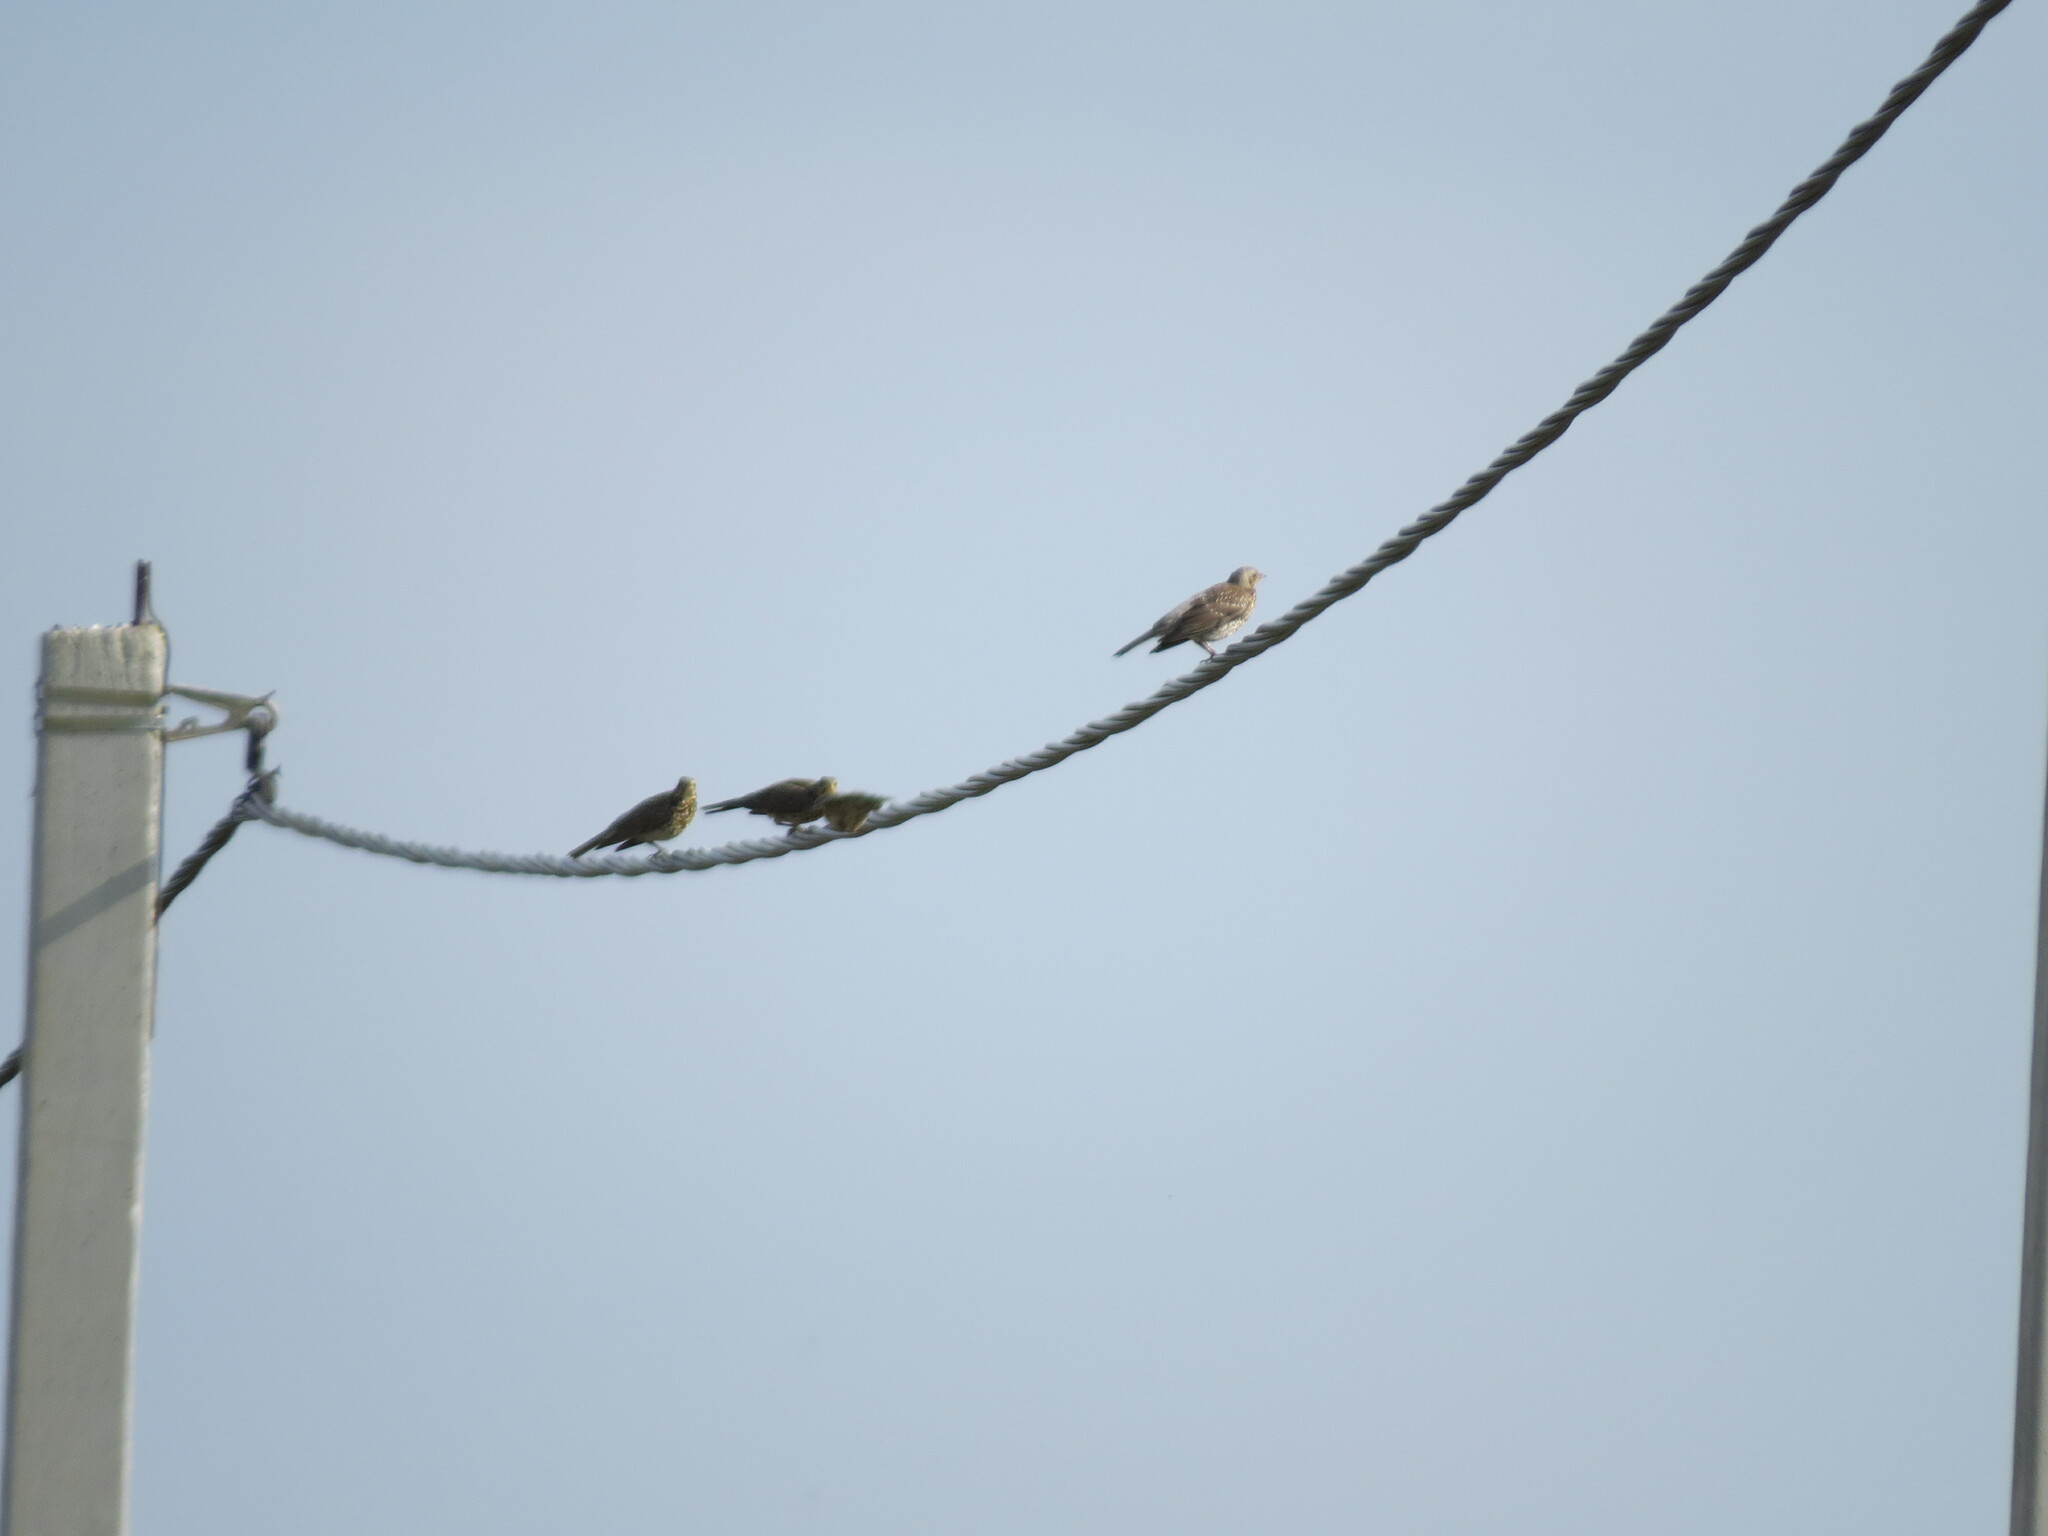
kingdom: Animalia
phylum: Chordata
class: Aves
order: Passeriformes
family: Turdidae
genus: Turdus
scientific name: Turdus pilaris
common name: Fieldfare
